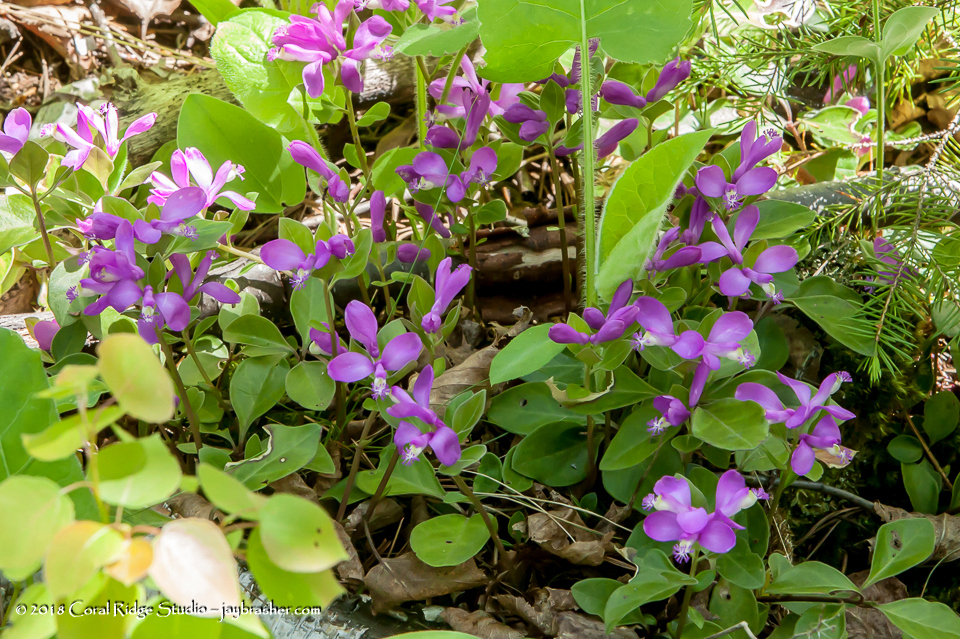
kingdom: Plantae
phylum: Tracheophyta
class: Magnoliopsida
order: Fabales
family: Polygalaceae
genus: Polygaloides
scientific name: Polygaloides paucifolia
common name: Bird-on-the-wing
